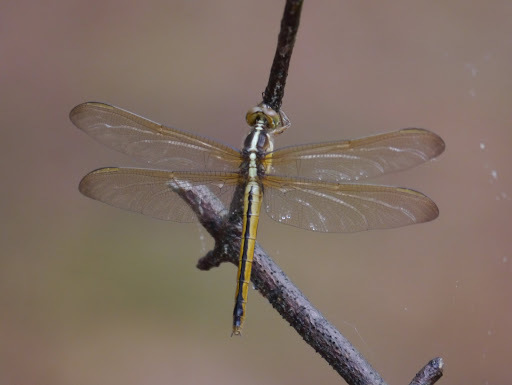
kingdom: Animalia
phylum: Arthropoda
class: Insecta
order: Odonata
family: Libellulidae
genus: Libellula
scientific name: Libellula needhami
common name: Needham's skimmer
